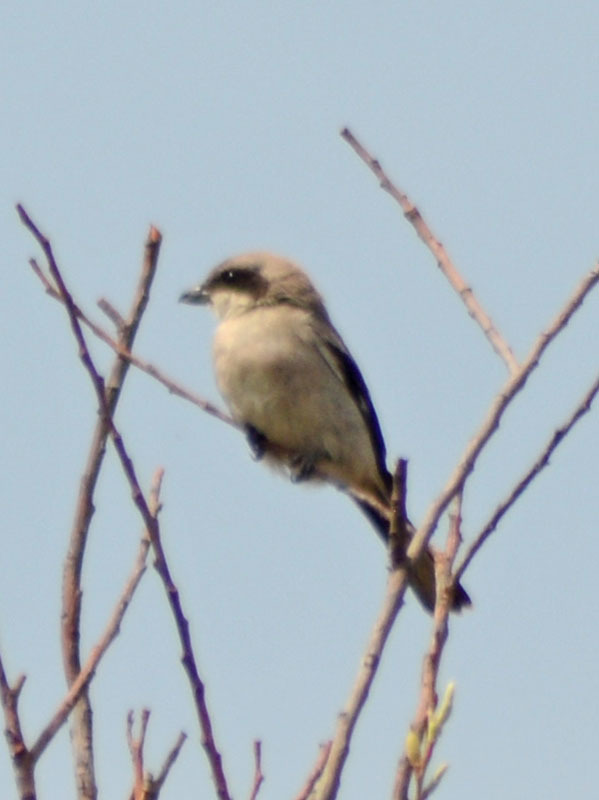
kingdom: Animalia
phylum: Chordata
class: Aves
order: Passeriformes
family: Laniidae
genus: Lanius
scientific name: Lanius ludovicianus
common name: Loggerhead shrike
